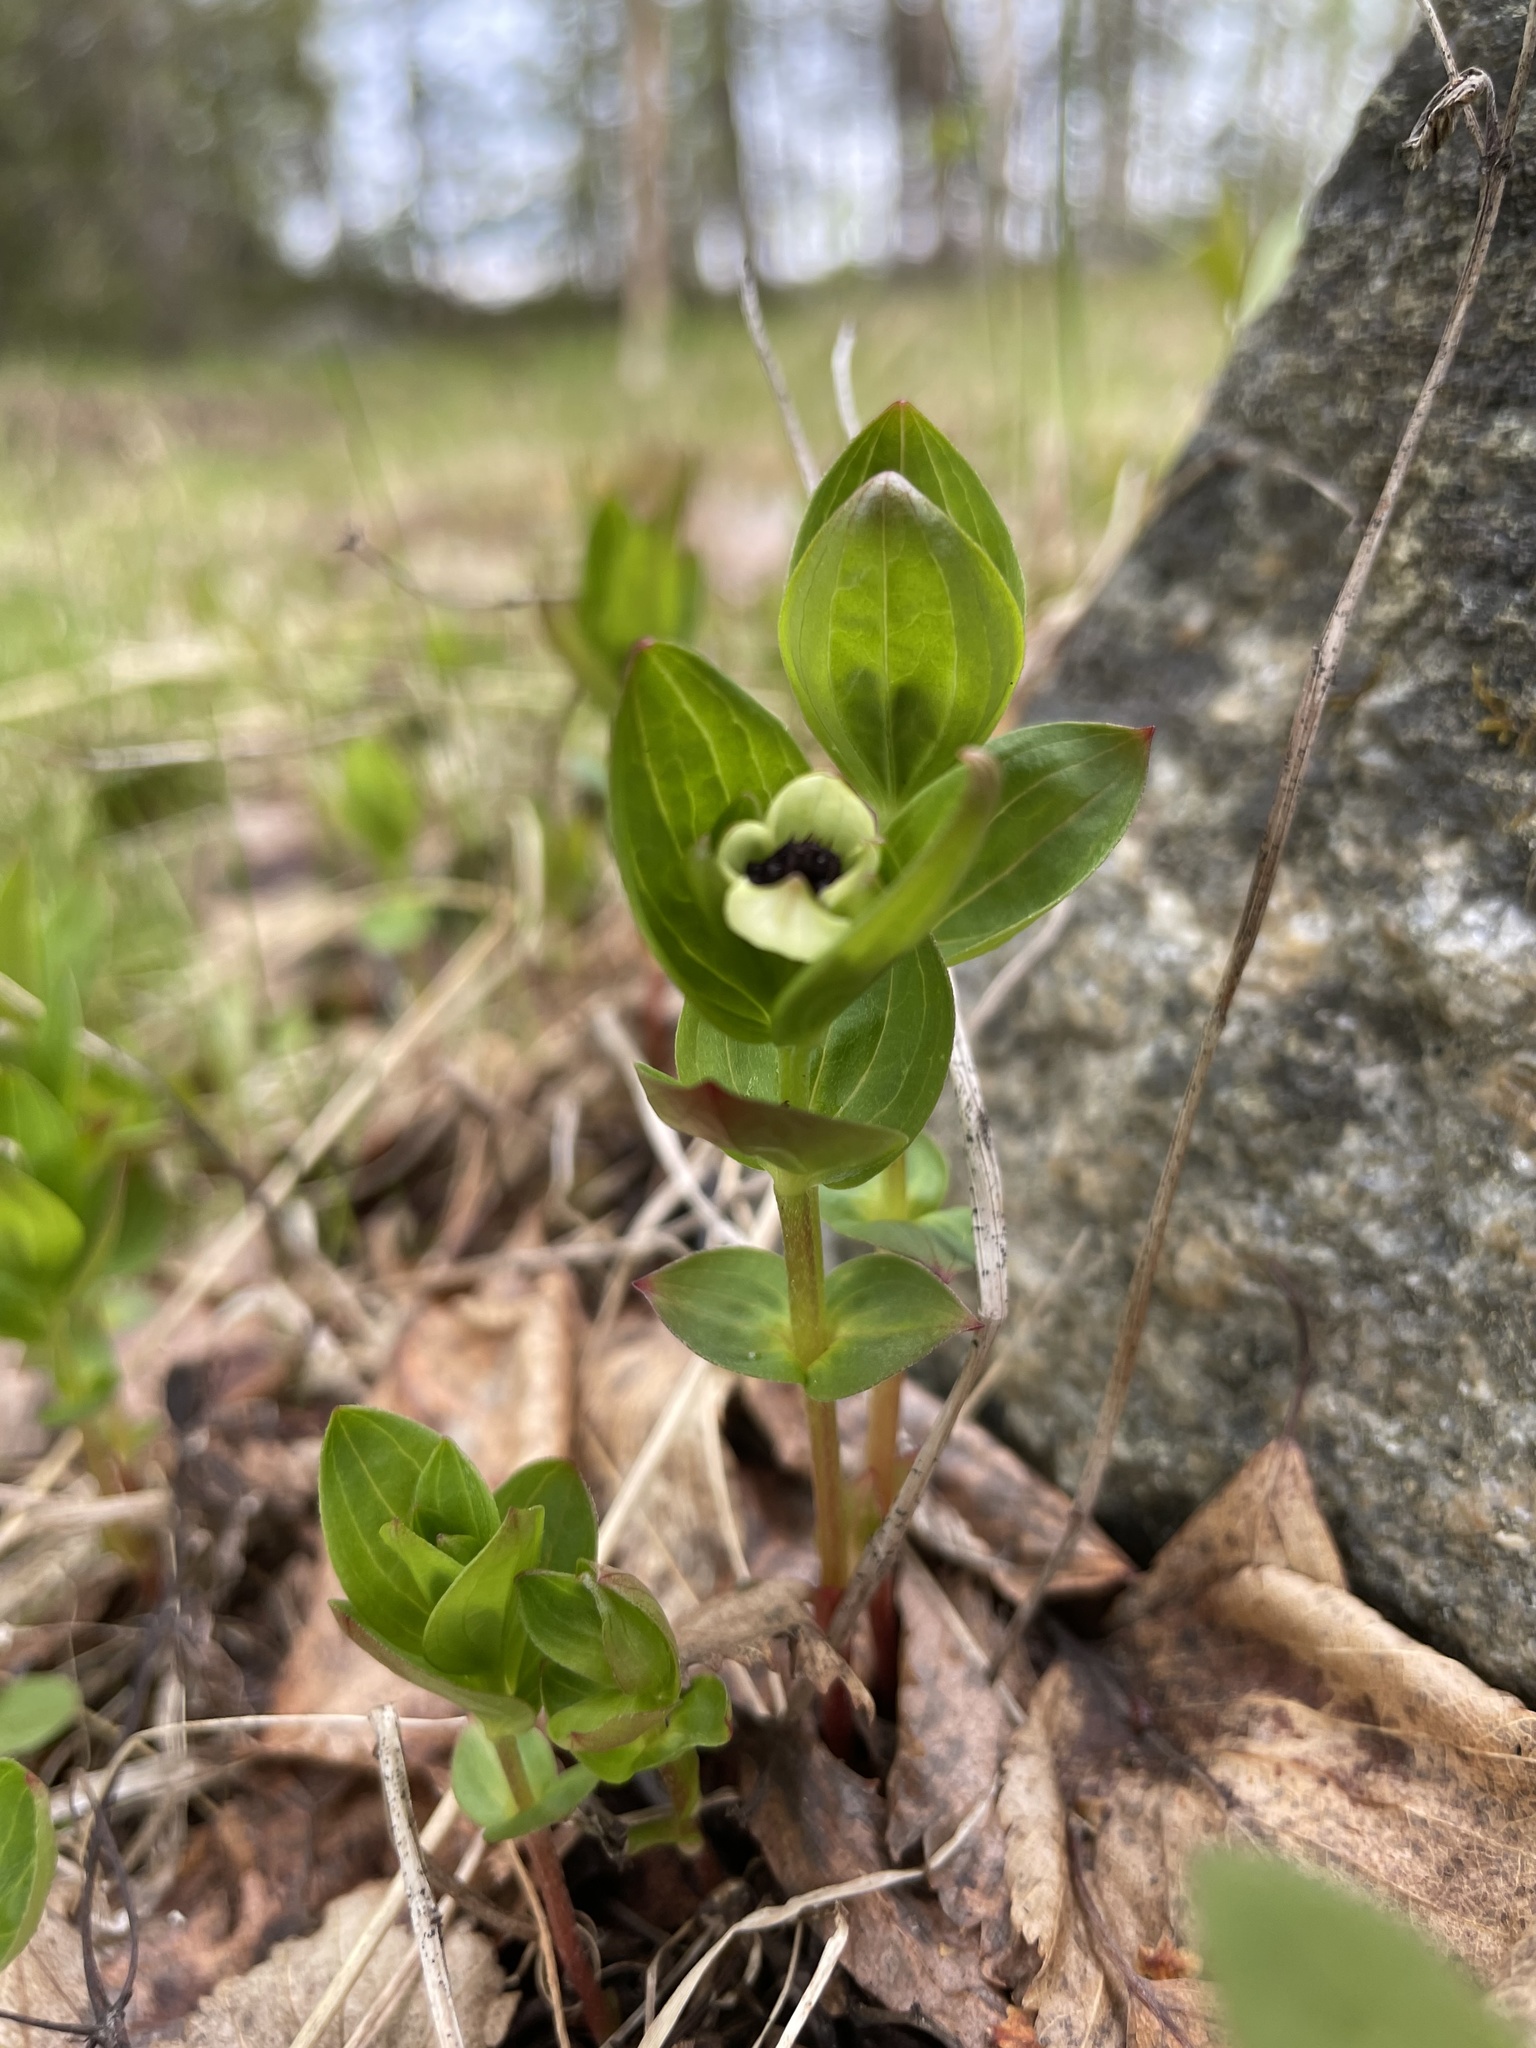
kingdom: Plantae
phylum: Tracheophyta
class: Magnoliopsida
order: Cornales
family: Cornaceae
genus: Cornus
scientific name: Cornus suecica
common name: Dwarf cornel
